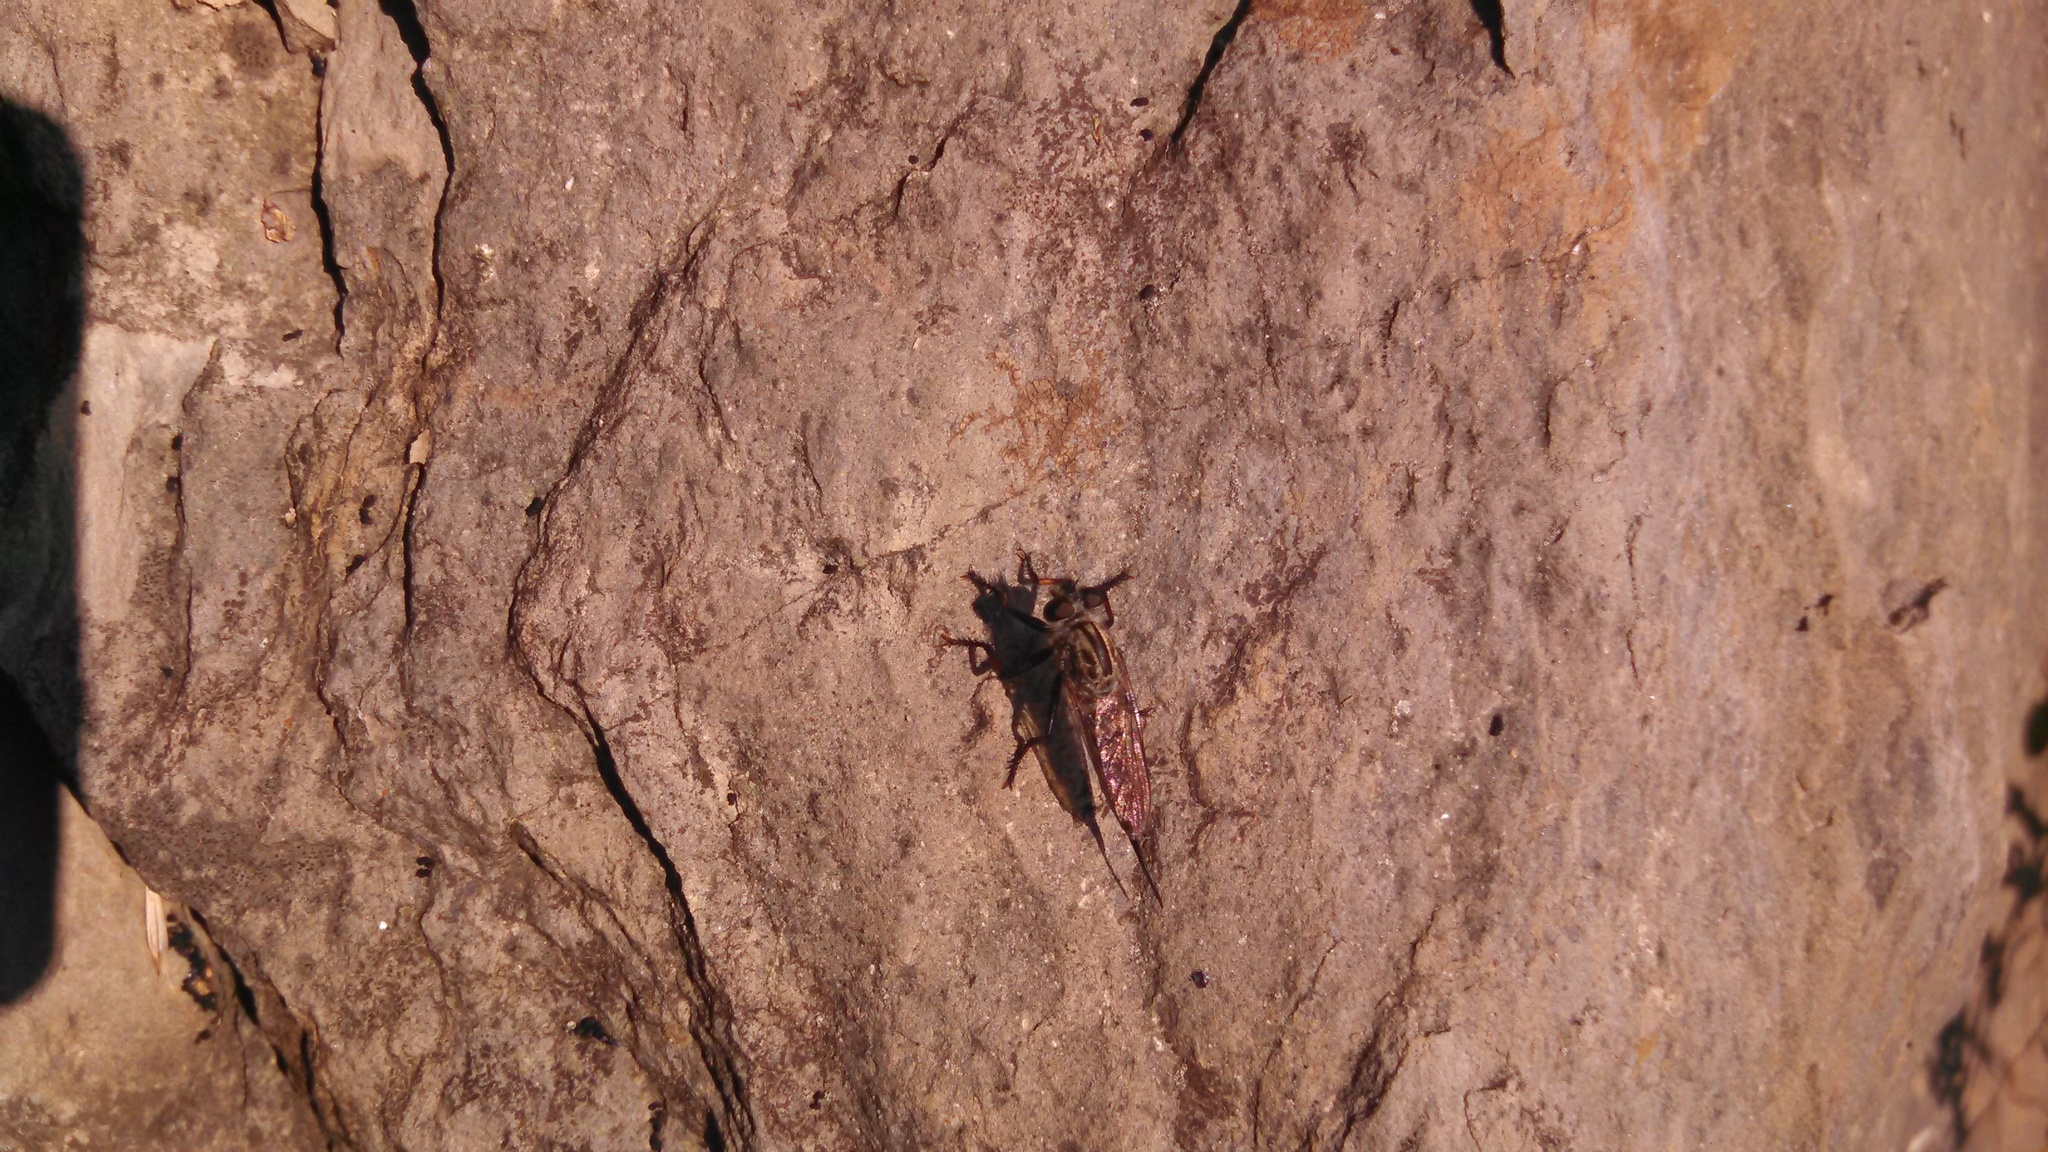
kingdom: Animalia
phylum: Arthropoda
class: Insecta
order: Diptera
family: Asilidae
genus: Efferia
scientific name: Efferia aestuans
